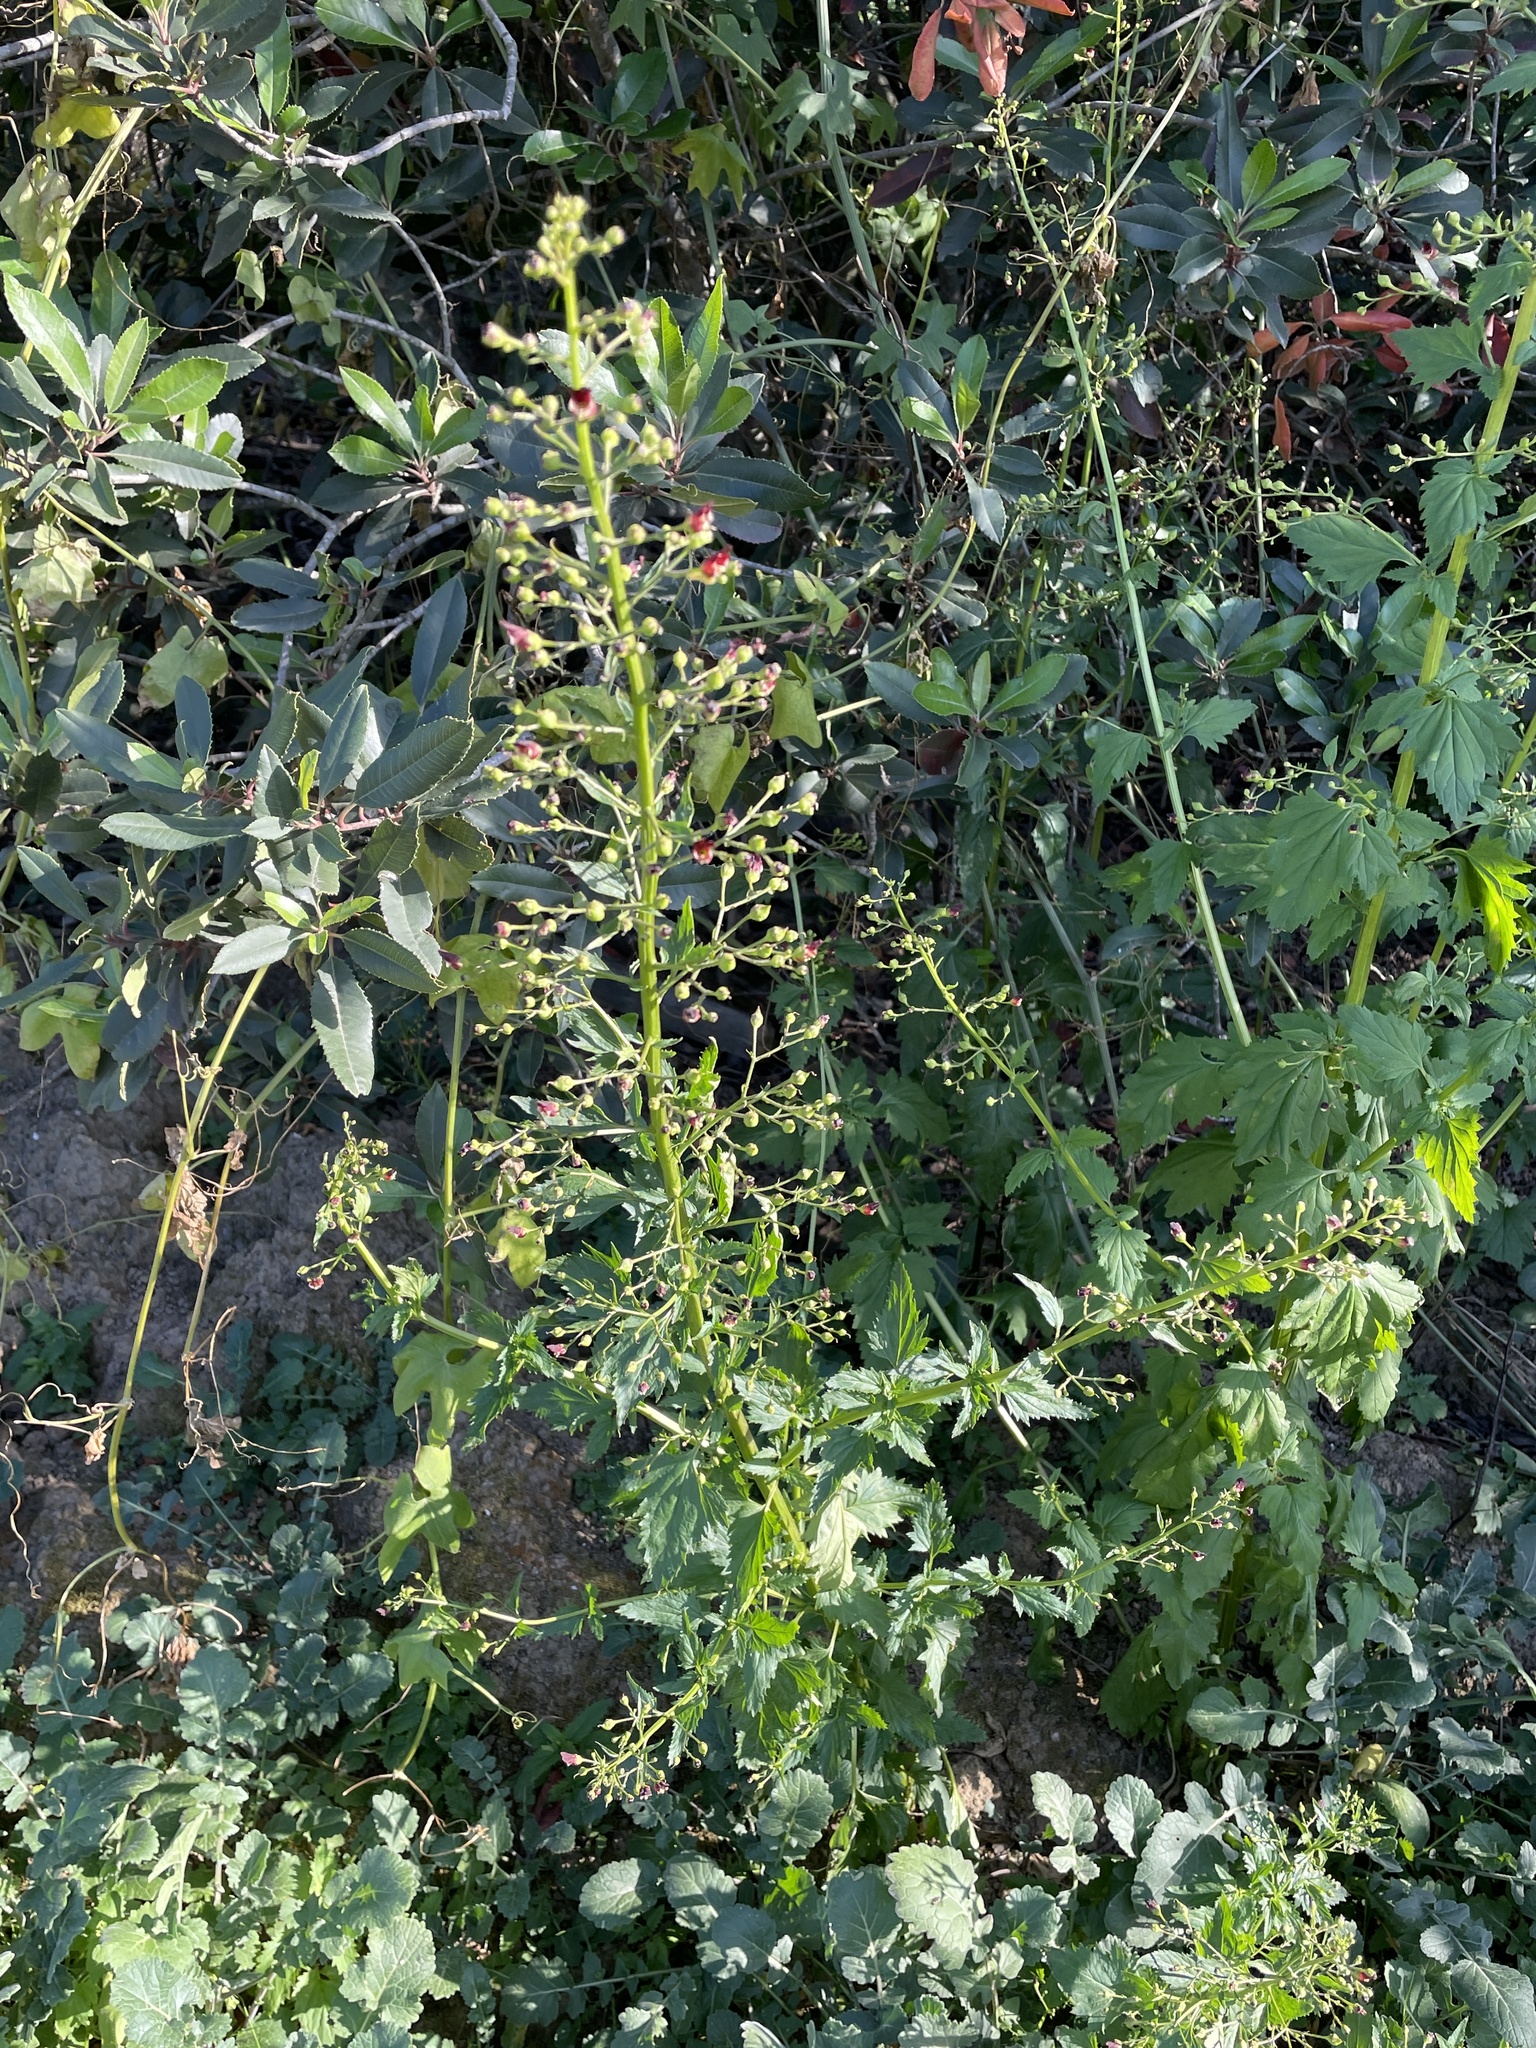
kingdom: Plantae
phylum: Tracheophyta
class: Magnoliopsida
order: Lamiales
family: Scrophulariaceae
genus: Scrophularia
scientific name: Scrophularia californica
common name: California figwort
